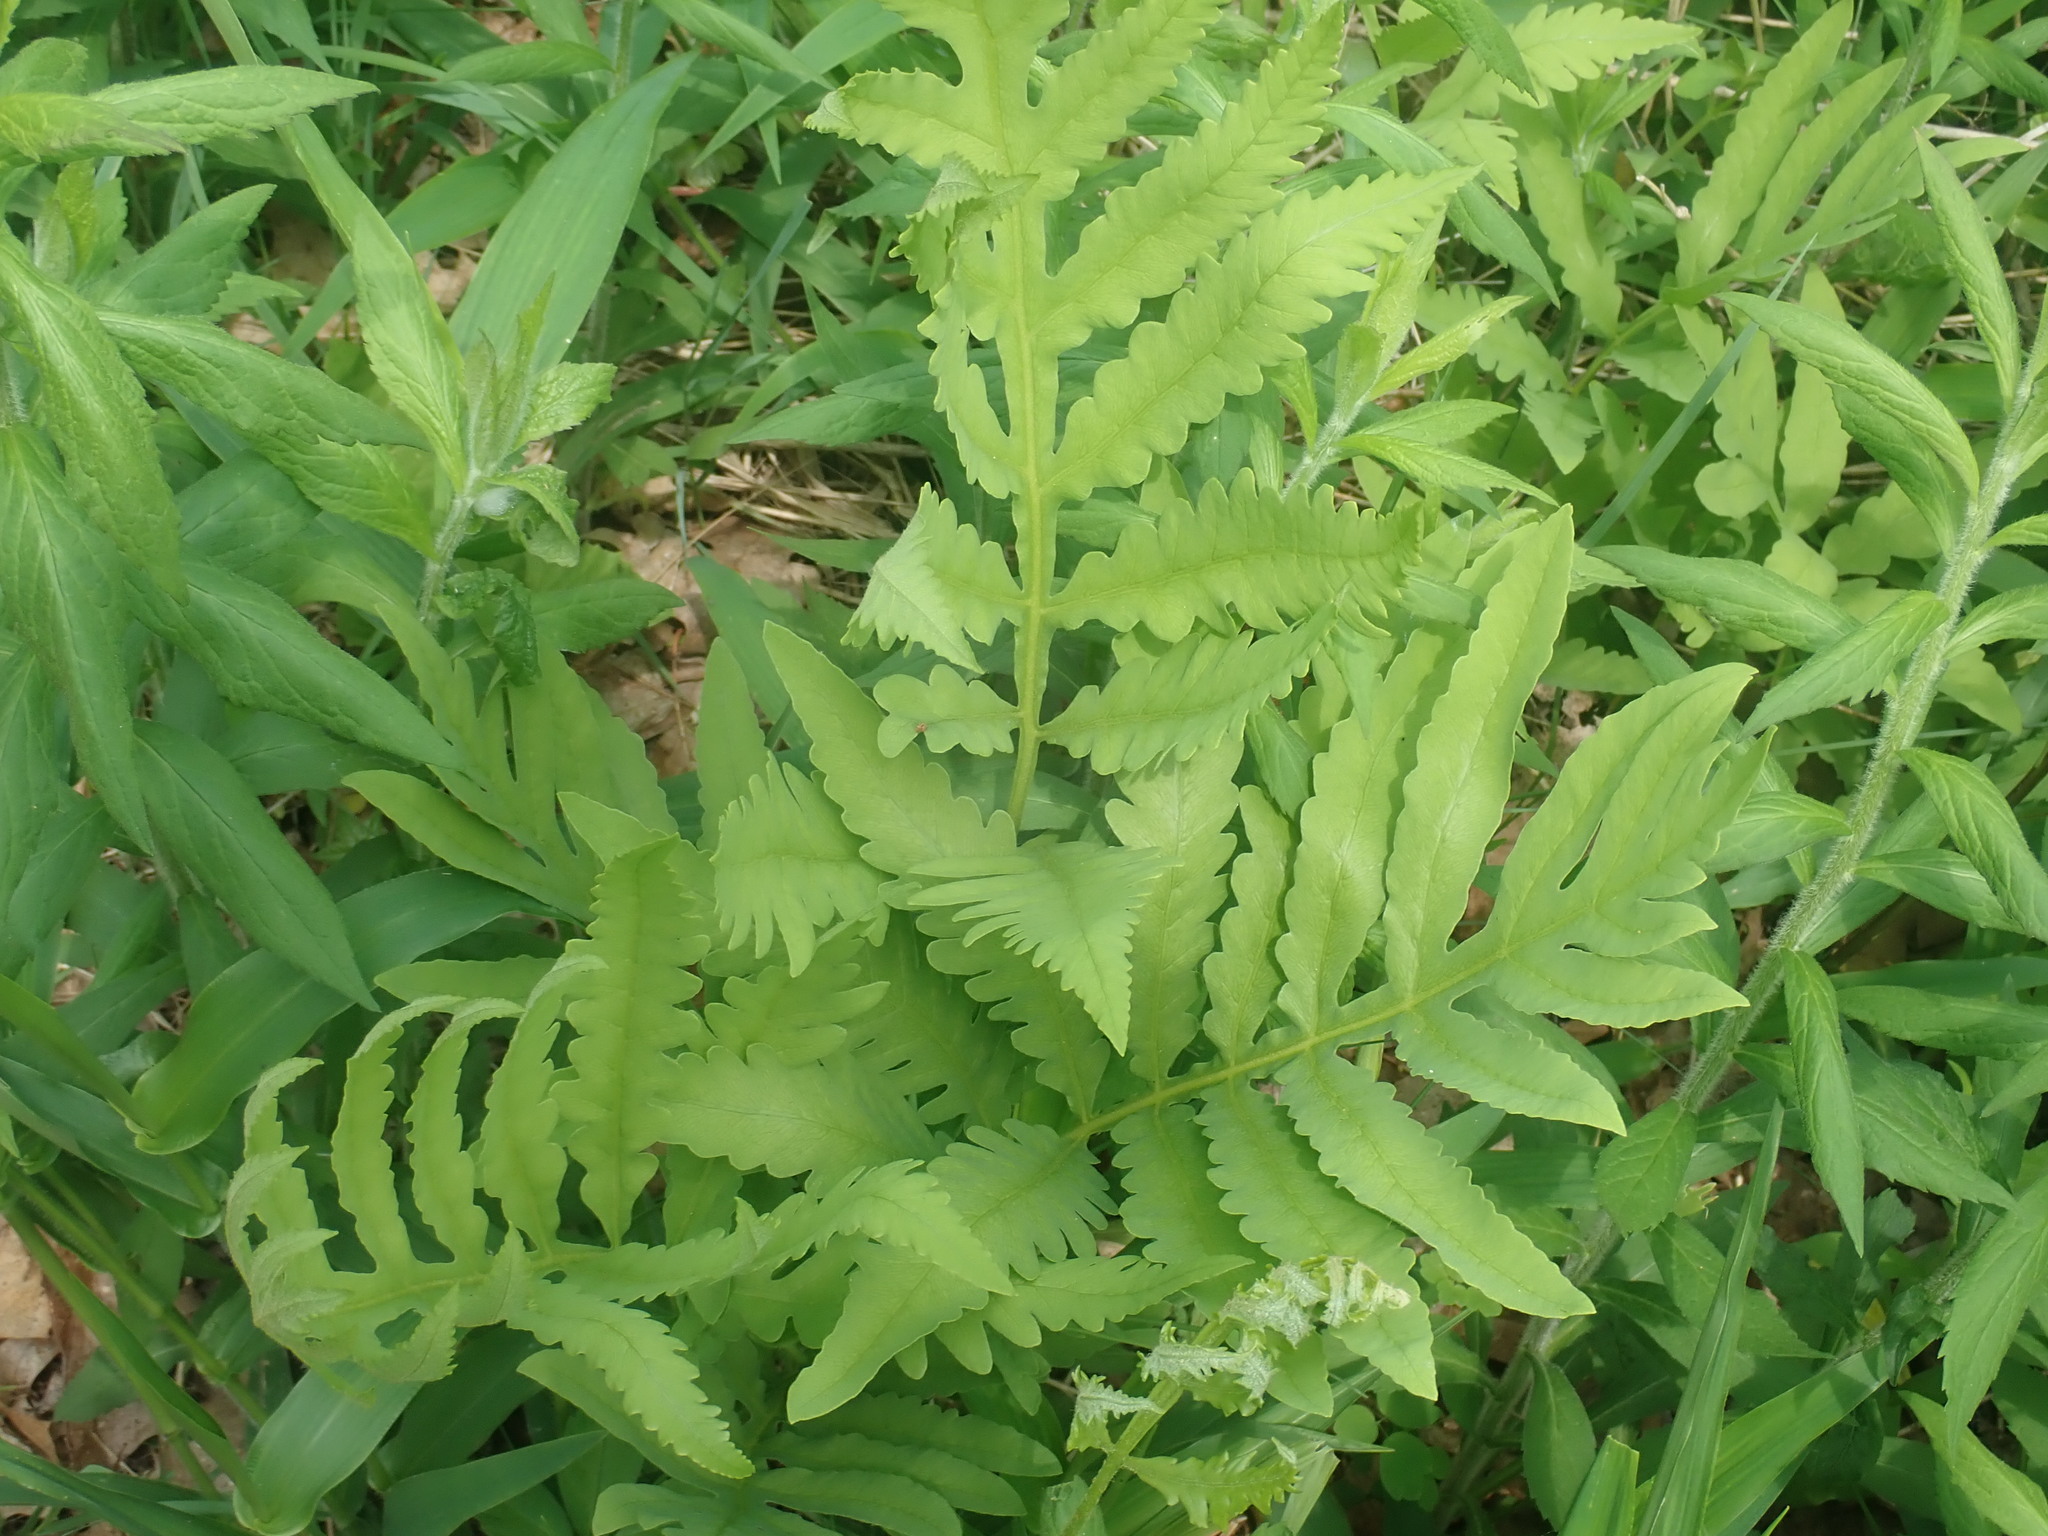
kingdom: Plantae
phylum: Tracheophyta
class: Polypodiopsida
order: Polypodiales
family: Onocleaceae
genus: Onoclea
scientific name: Onoclea sensibilis
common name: Sensitive fern
